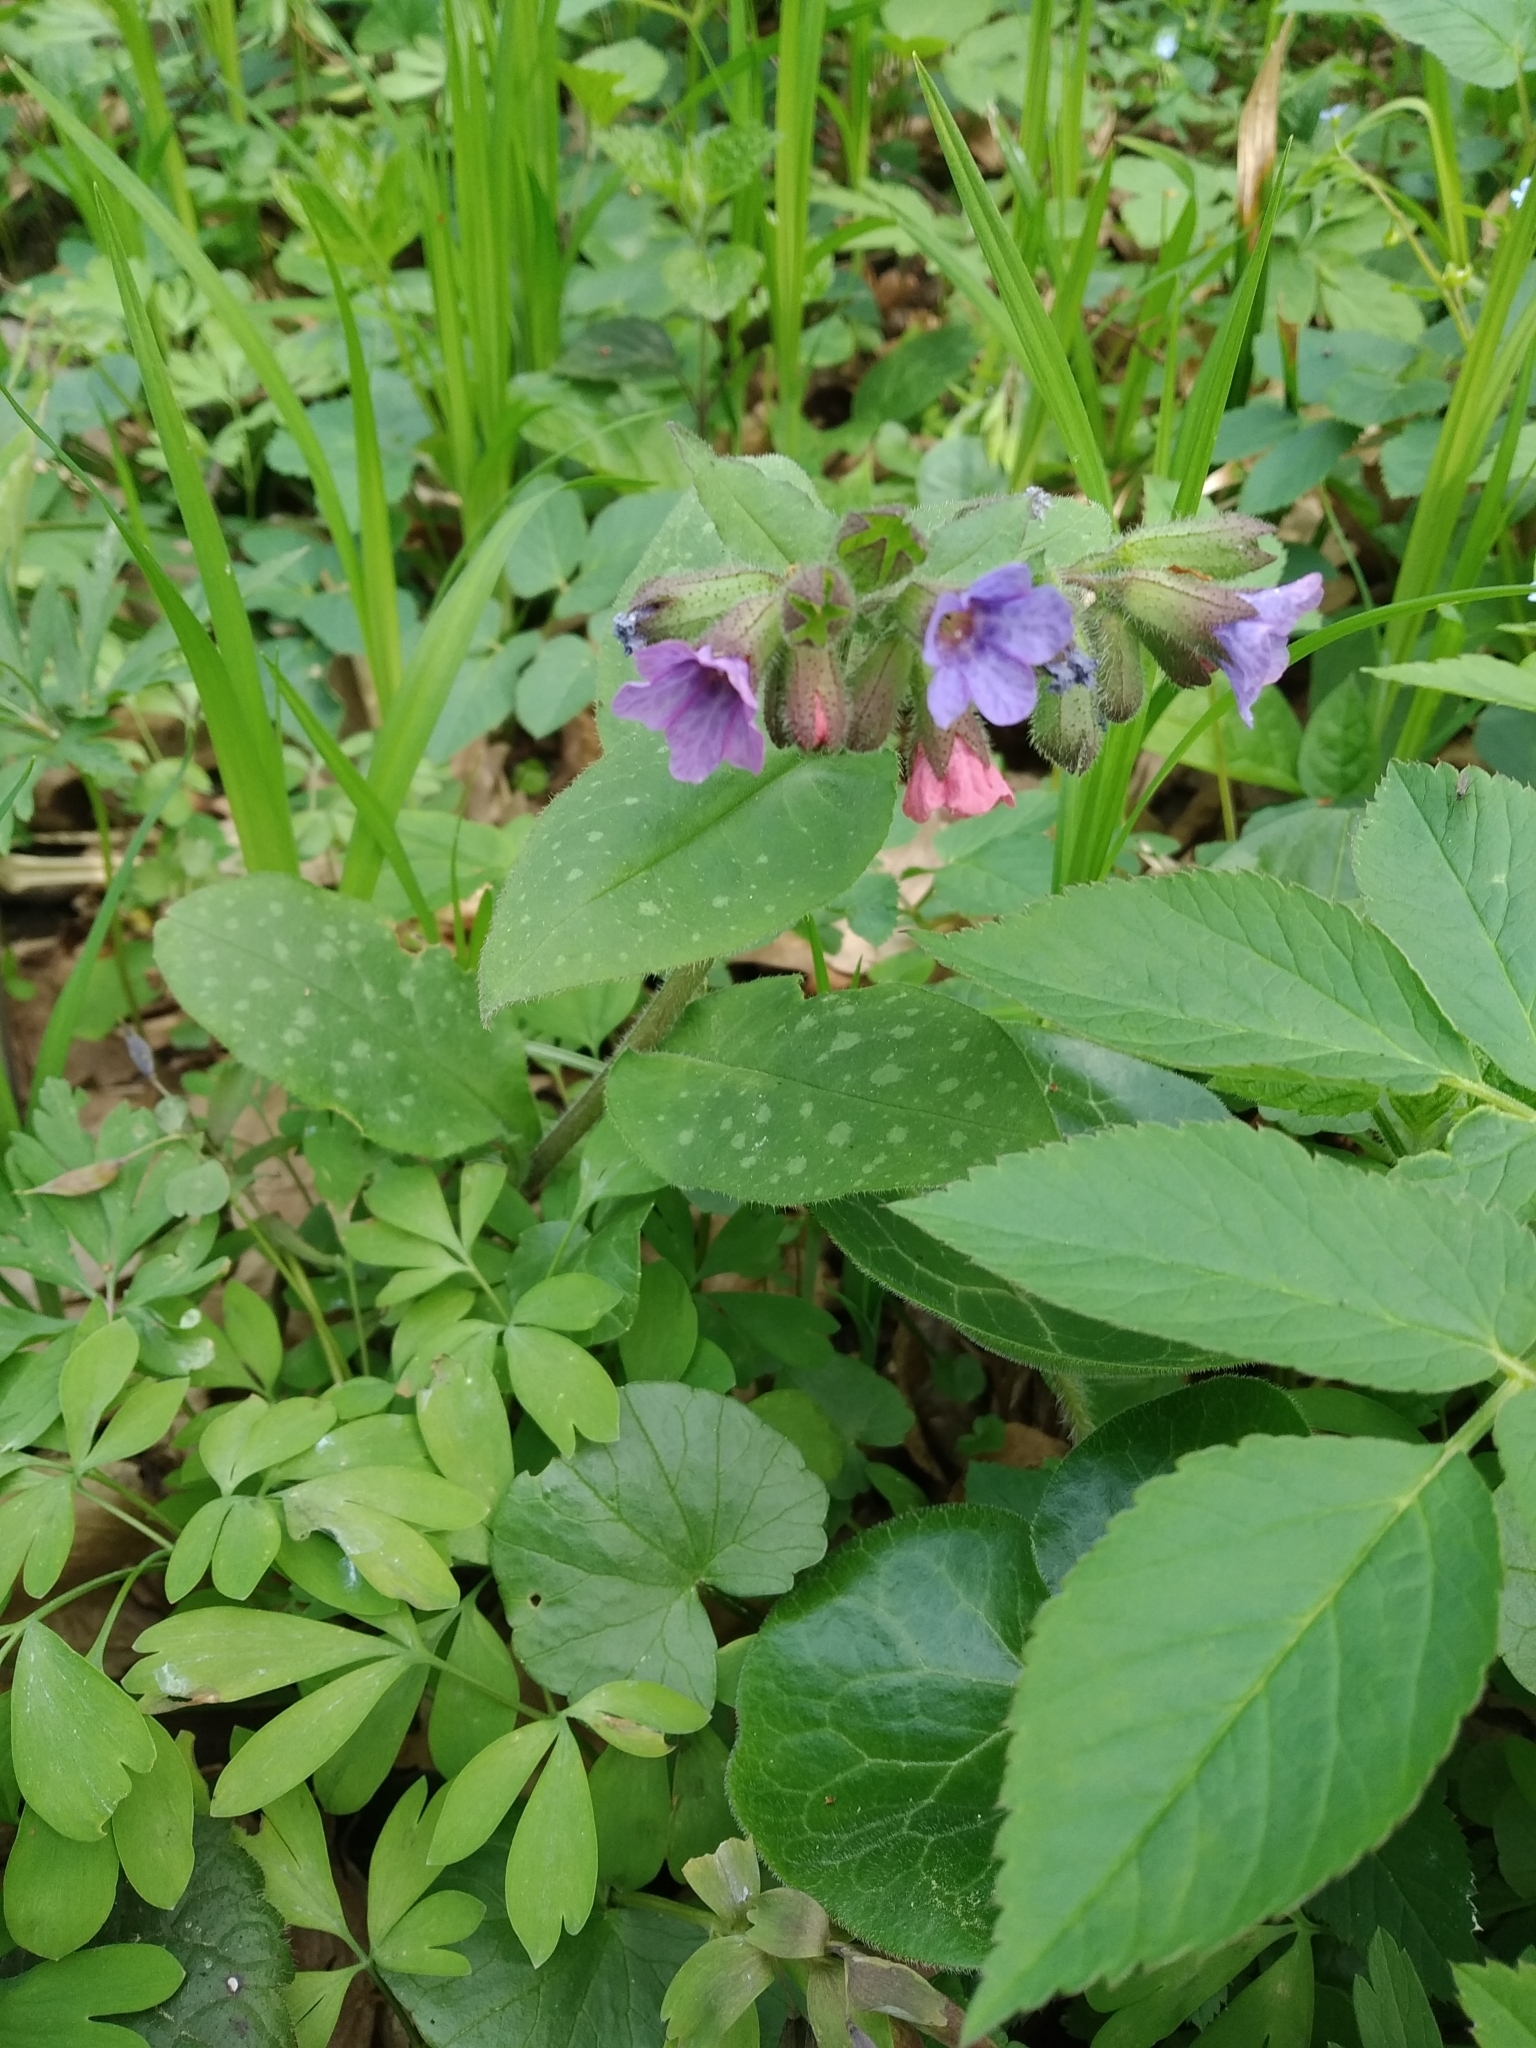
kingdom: Plantae
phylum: Tracheophyta
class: Magnoliopsida
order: Boraginales
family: Boraginaceae
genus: Pulmonaria
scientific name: Pulmonaria officinalis
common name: Lungwort
